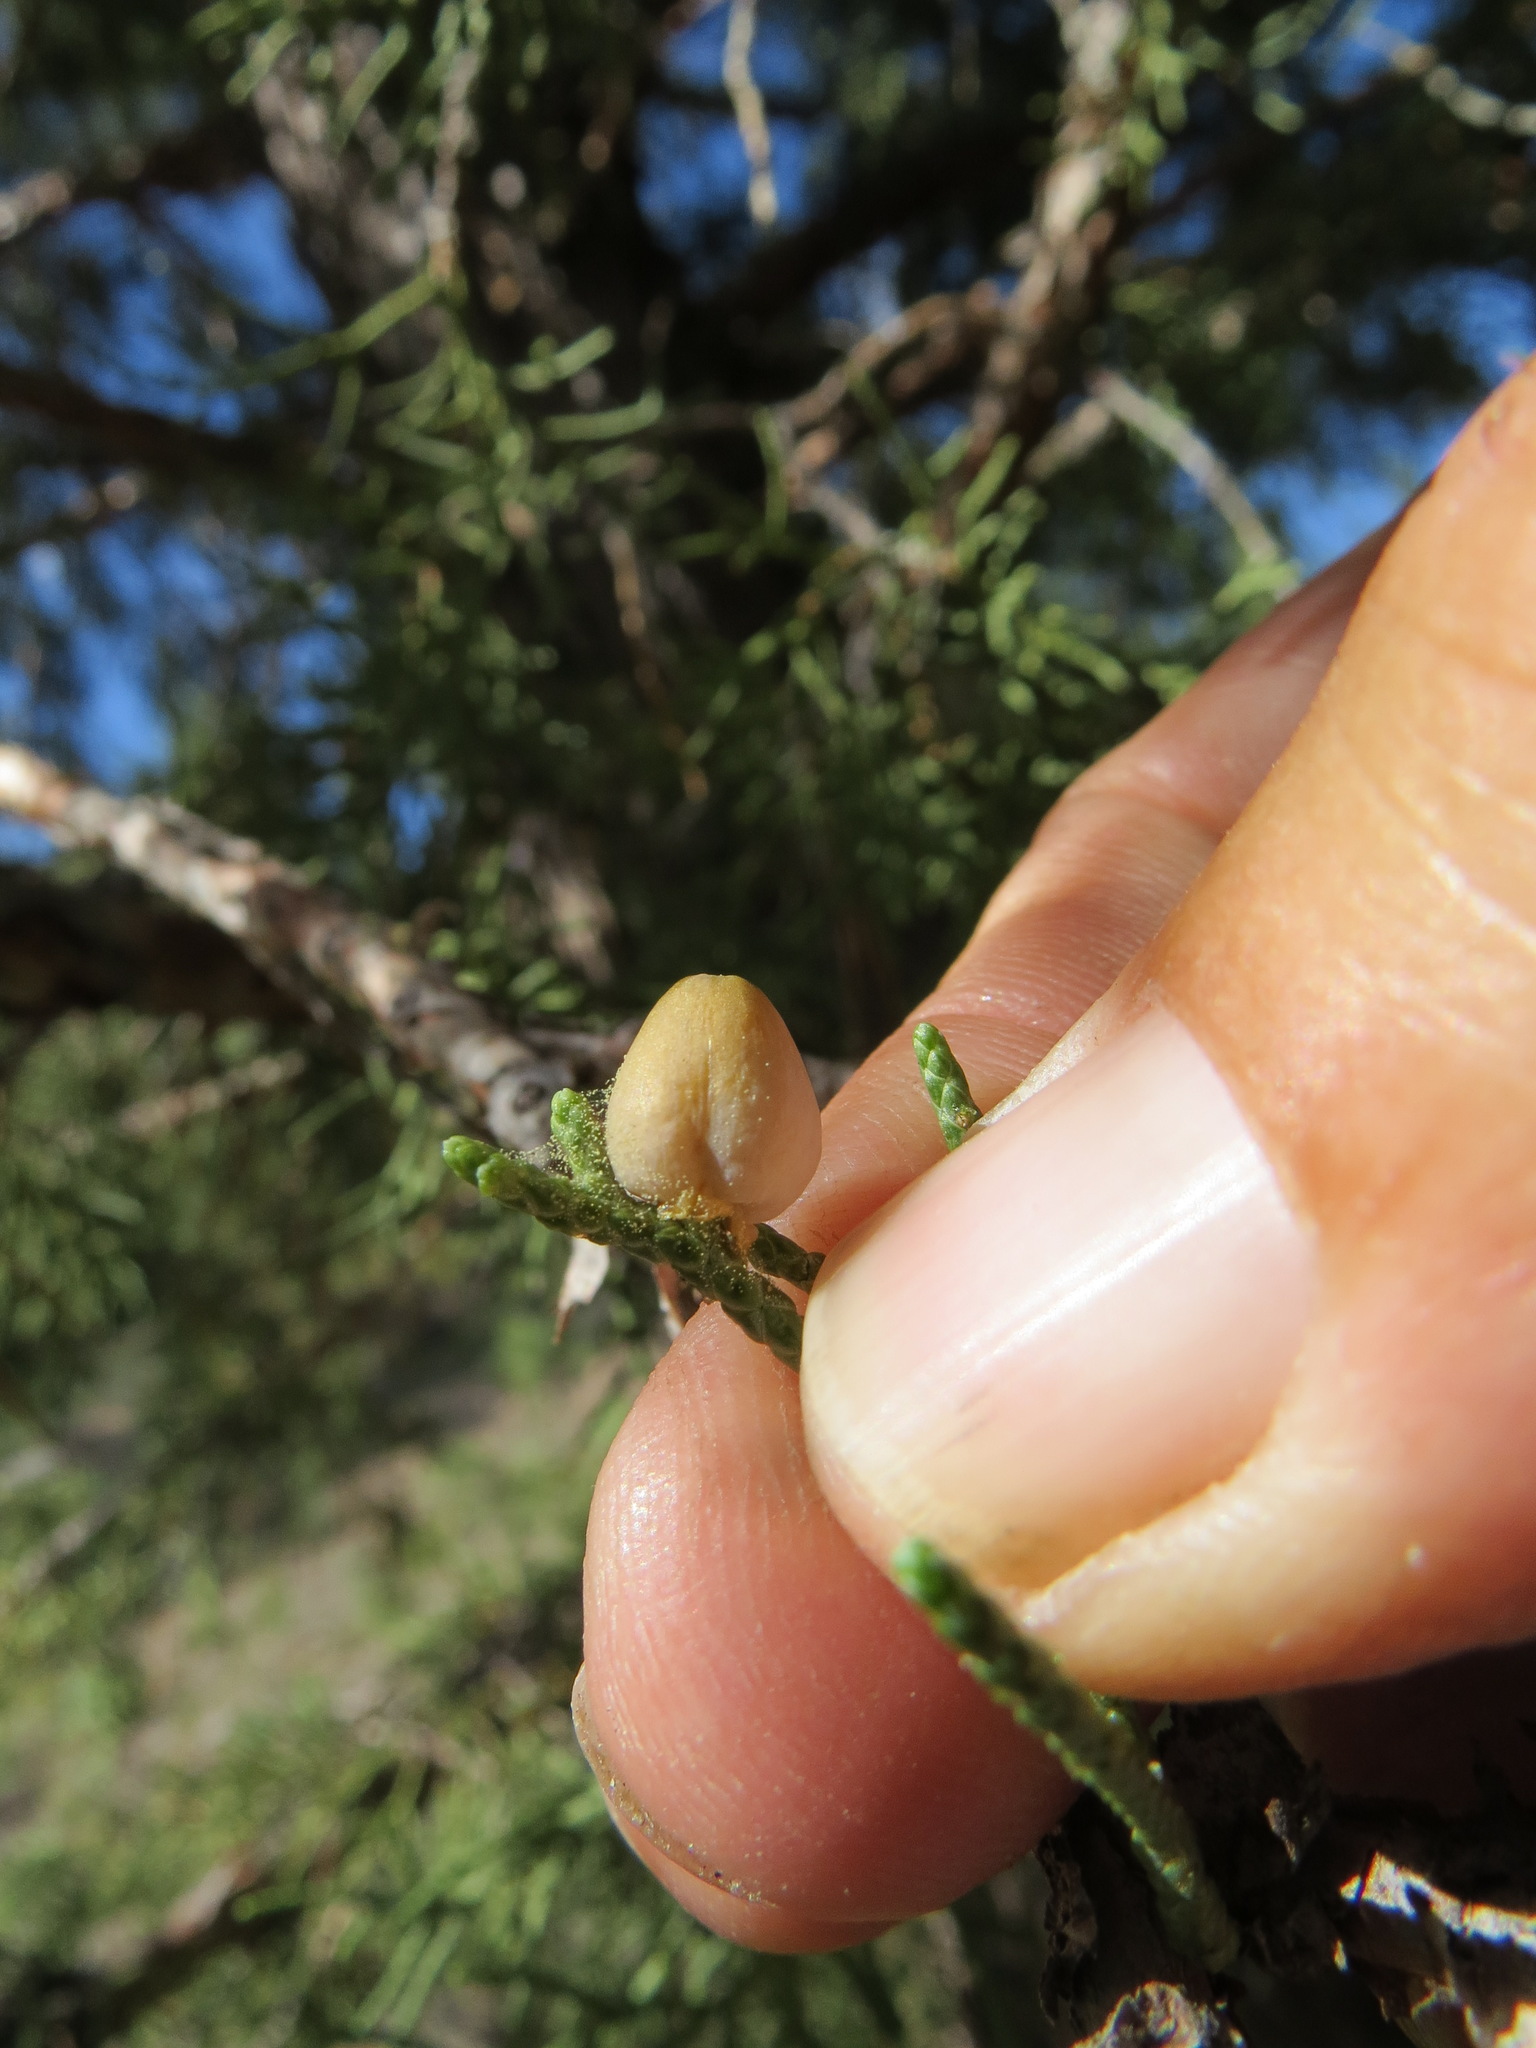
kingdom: Animalia
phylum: Arthropoda
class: Insecta
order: Diptera
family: Cecidomyiidae
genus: Walshomyia
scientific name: Walshomyia juniperina
